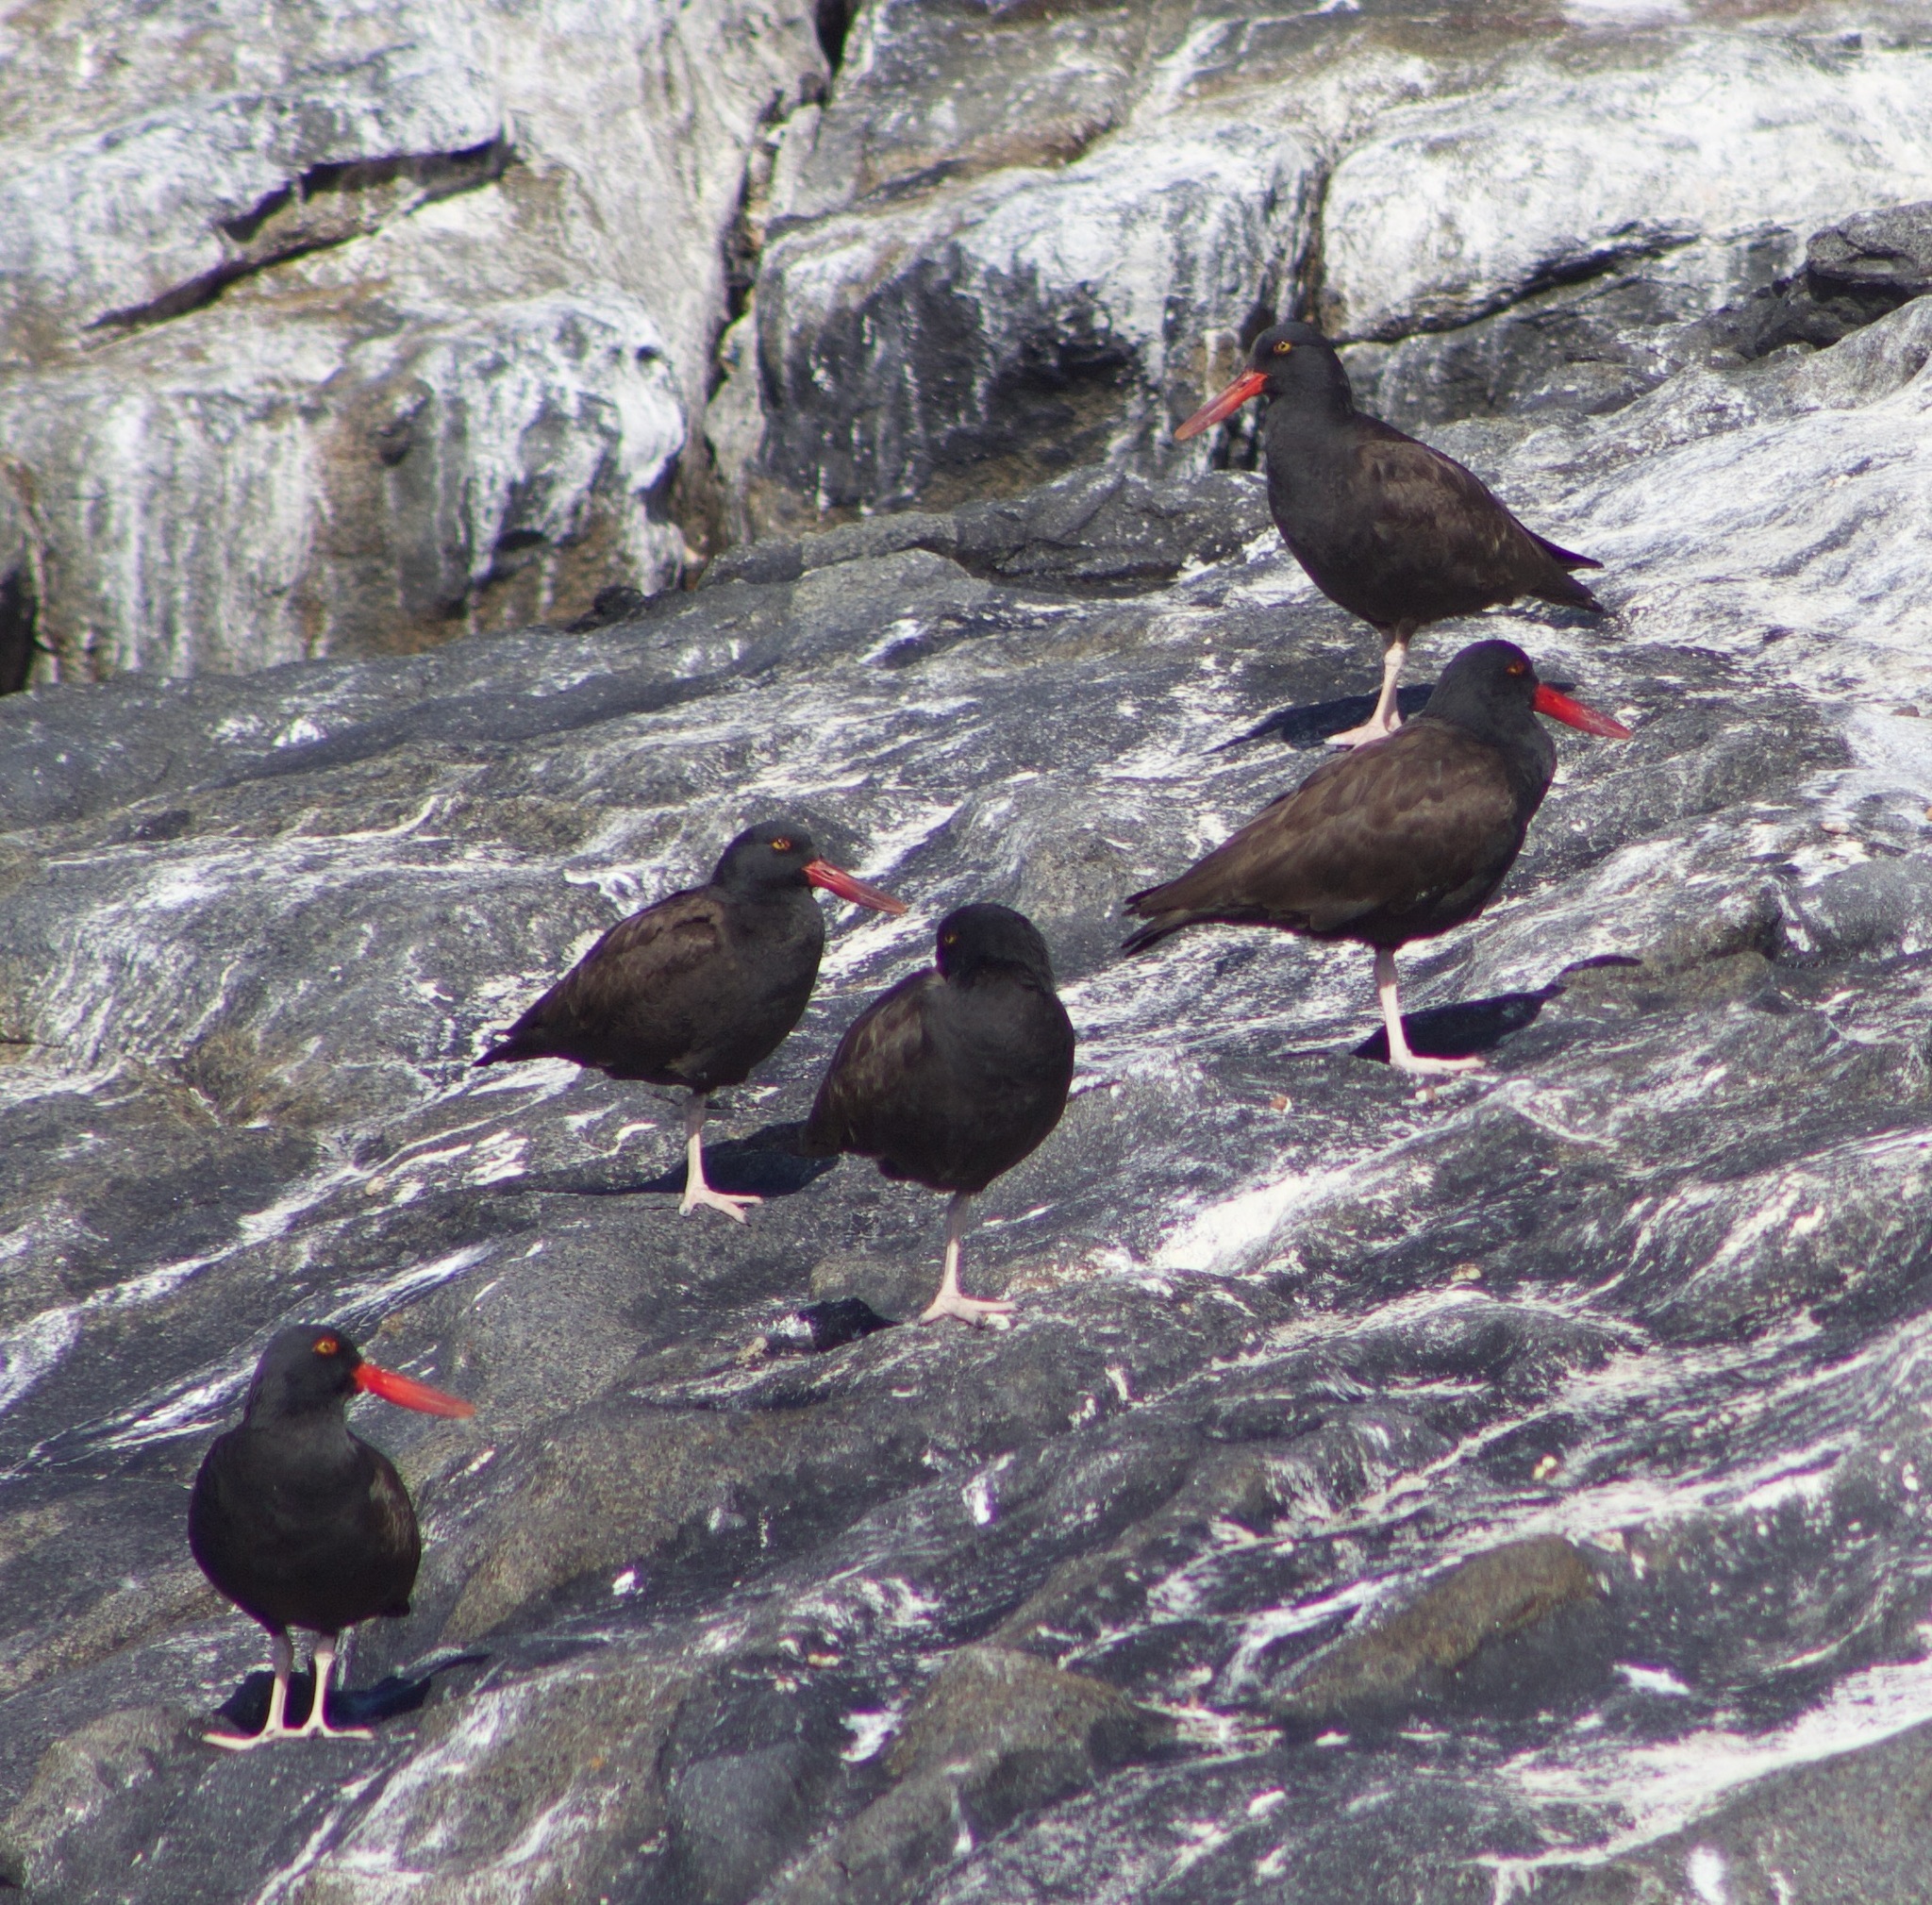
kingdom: Animalia
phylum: Chordata
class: Aves
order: Charadriiformes
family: Haematopodidae
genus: Haematopus
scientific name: Haematopus ater
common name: Blackish oystercatcher
